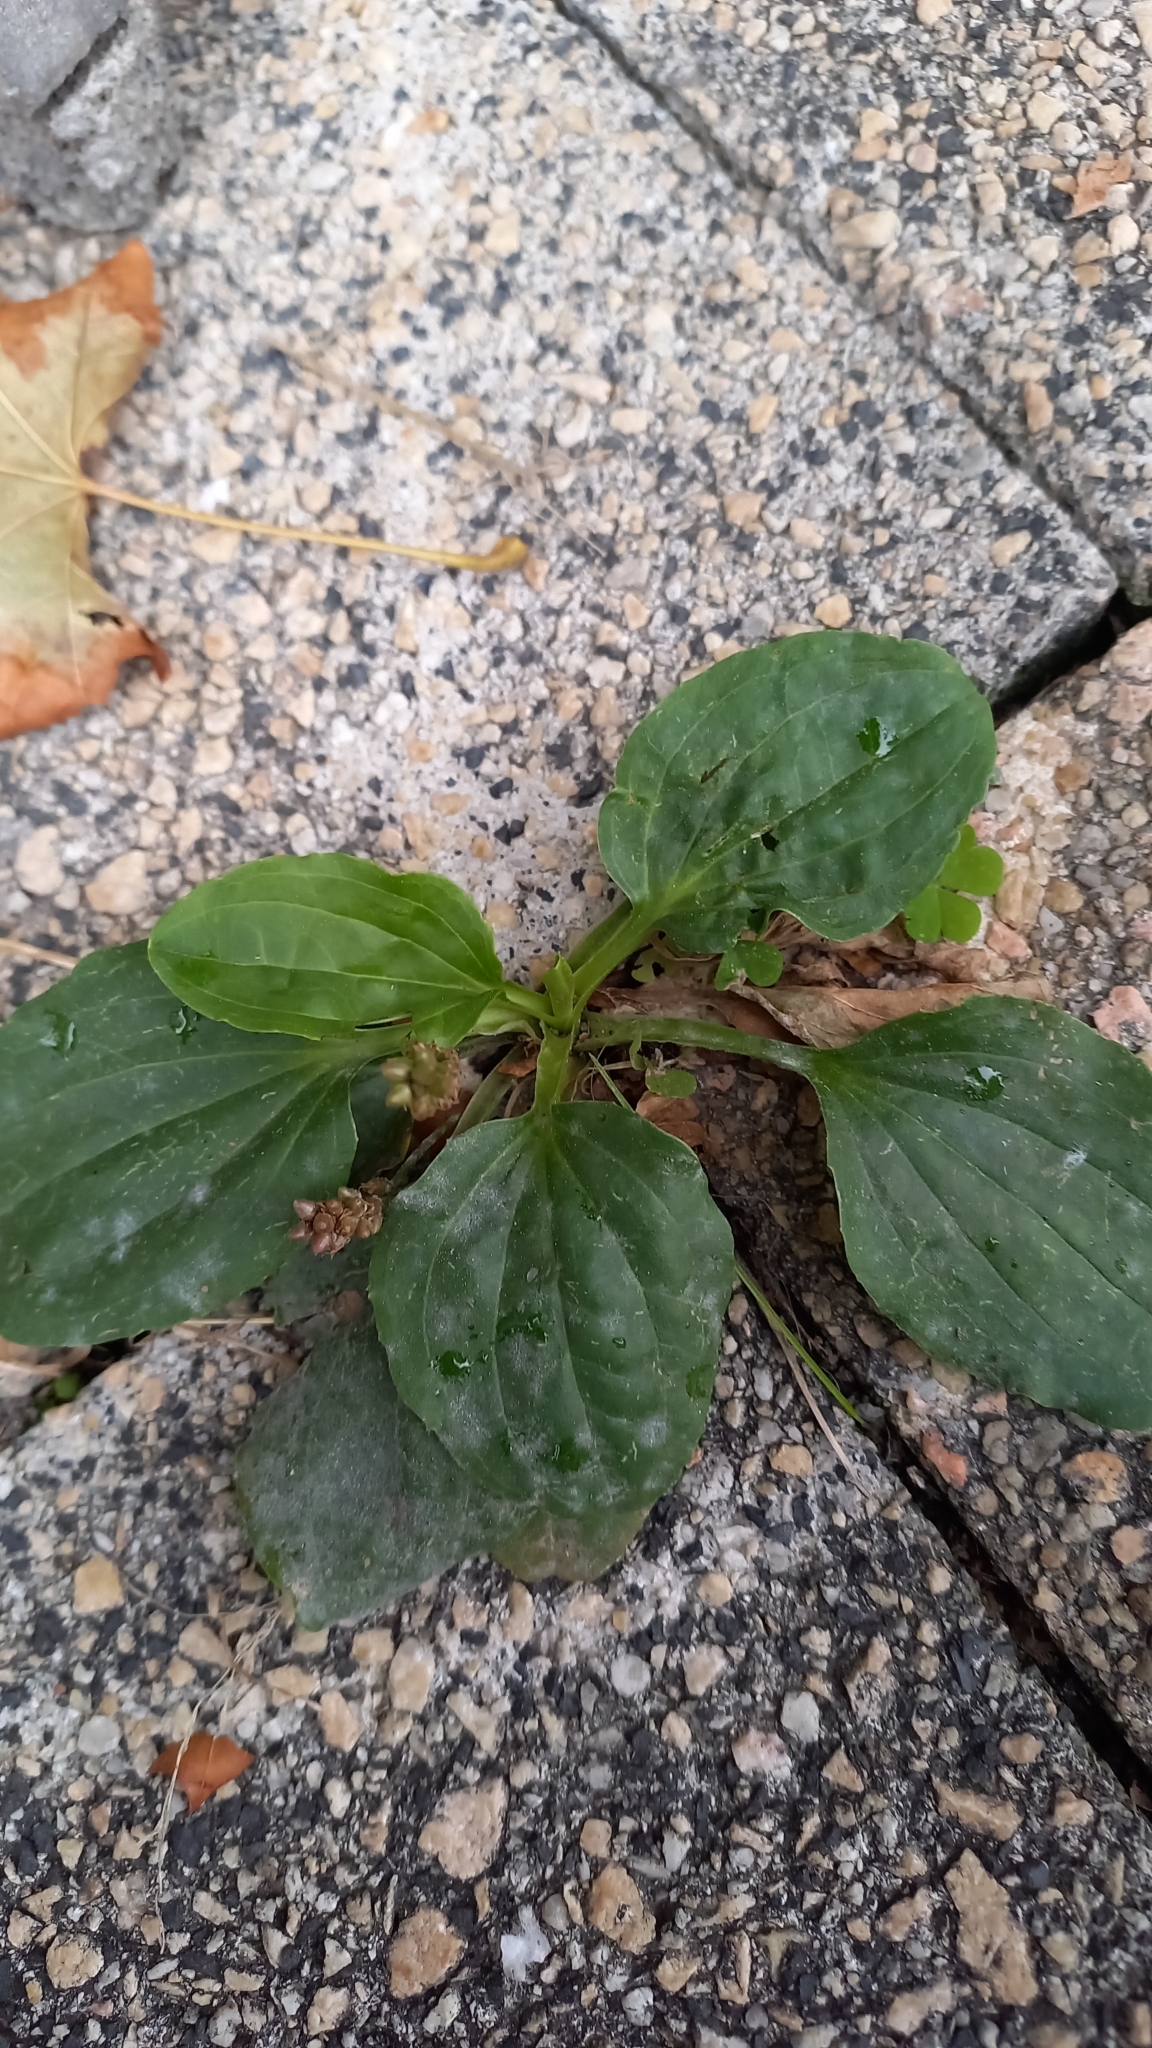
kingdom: Plantae
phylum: Tracheophyta
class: Magnoliopsida
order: Lamiales
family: Plantaginaceae
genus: Plantago
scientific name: Plantago major
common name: Common plantain
